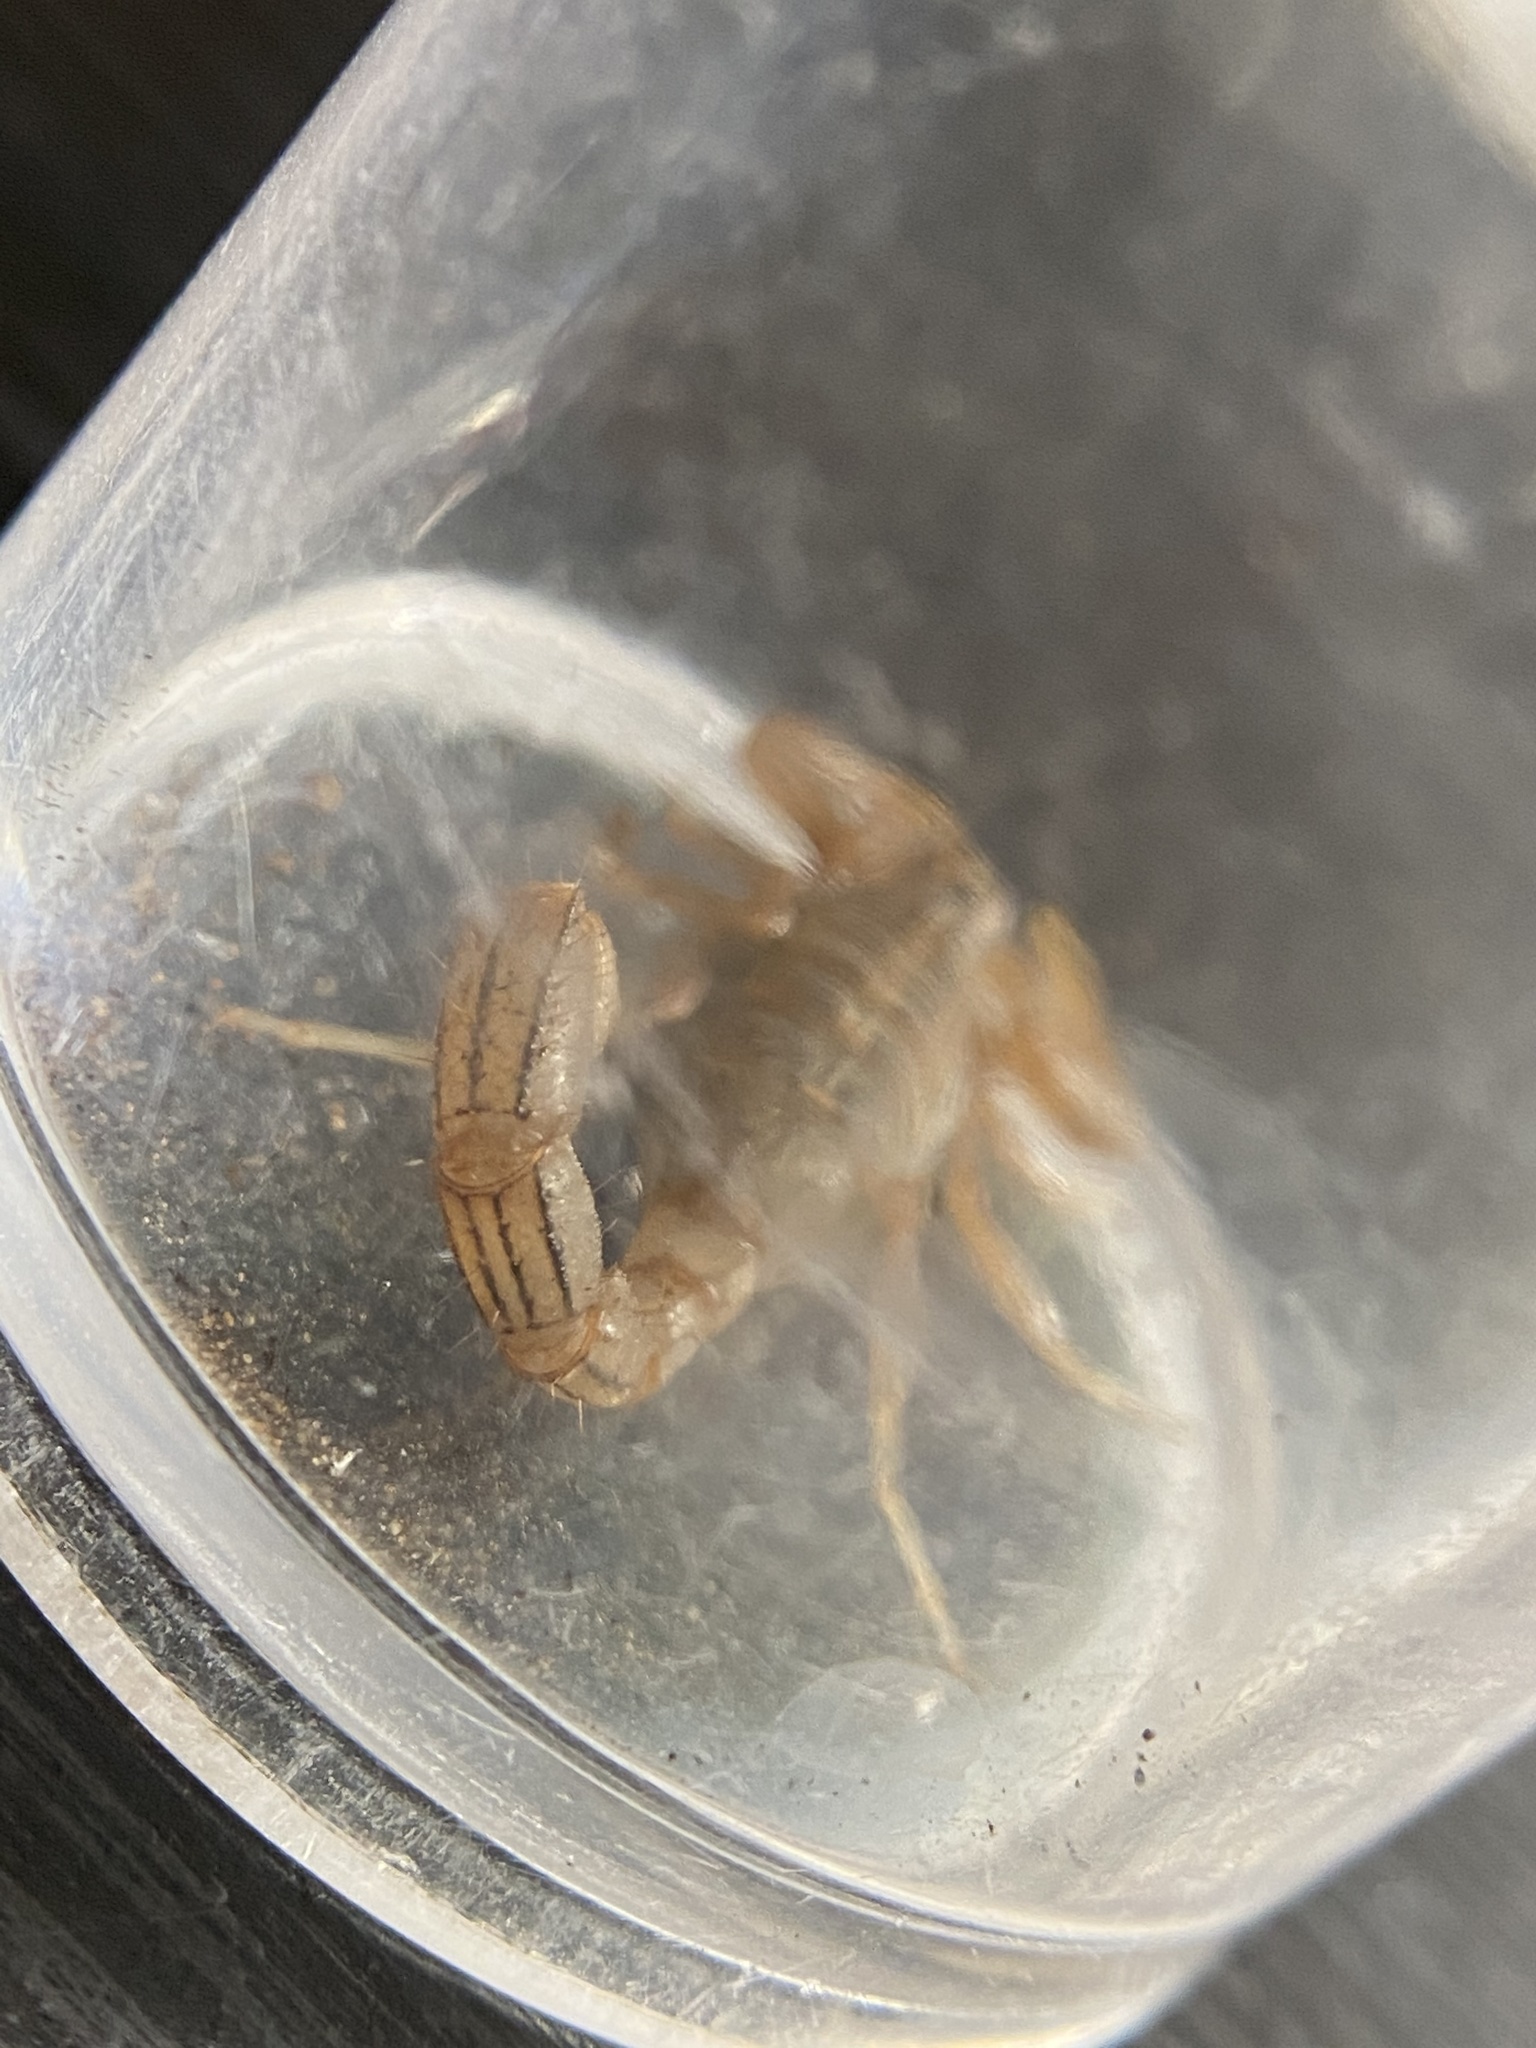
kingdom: Animalia
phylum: Arthropoda
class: Arachnida
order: Scorpiones
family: Vaejovidae
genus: Paravaejovis
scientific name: Paravaejovis spinigerus
